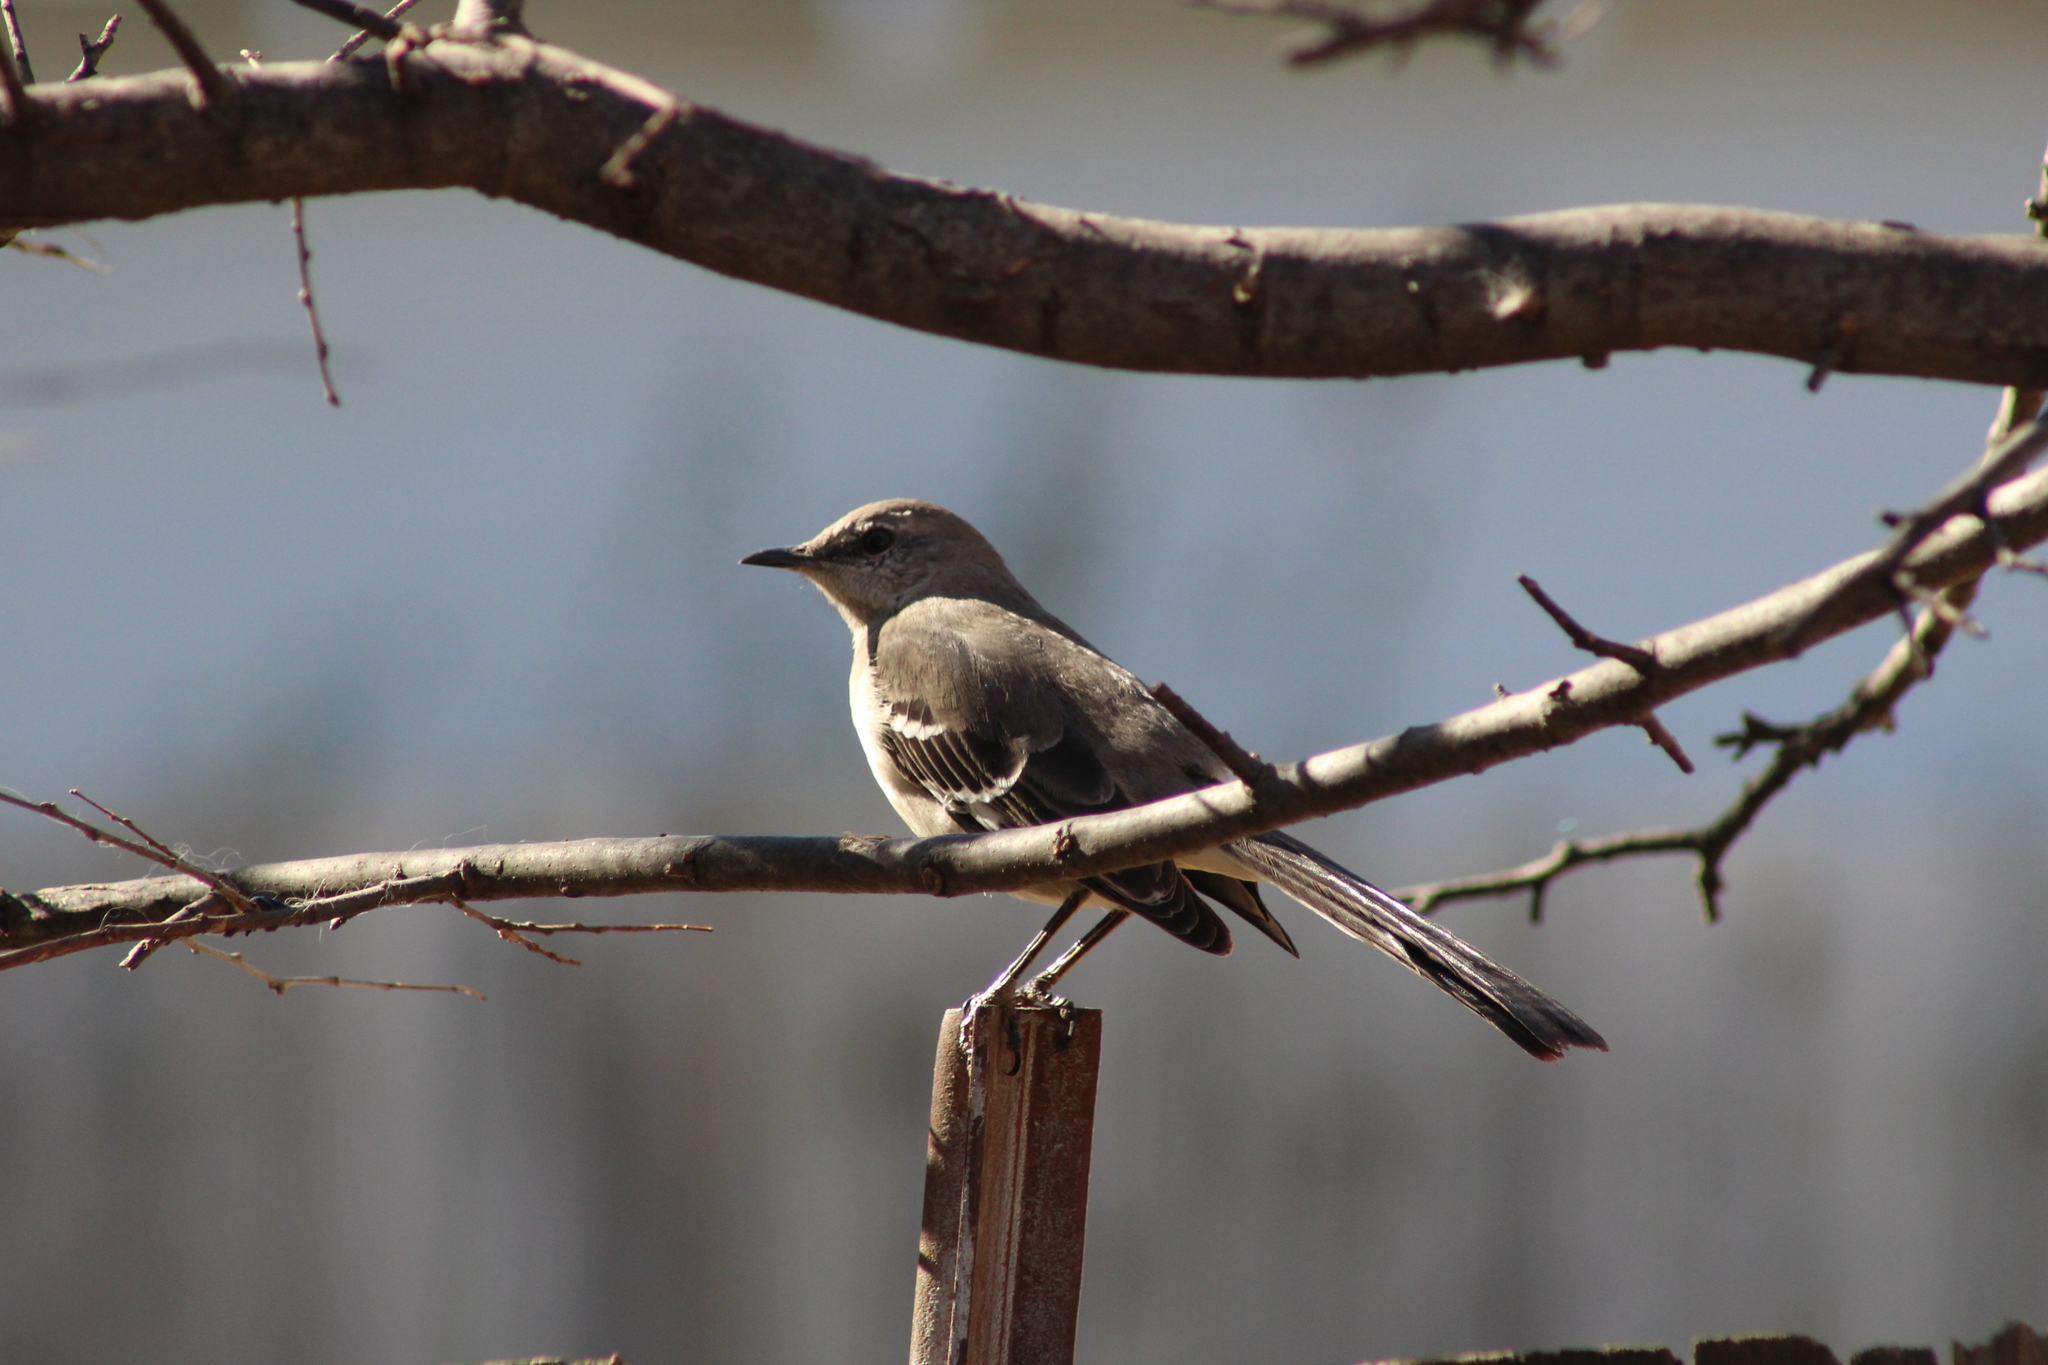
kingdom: Animalia
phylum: Chordata
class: Aves
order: Passeriformes
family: Mimidae
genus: Mimus
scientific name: Mimus polyglottos
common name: Northern mockingbird
